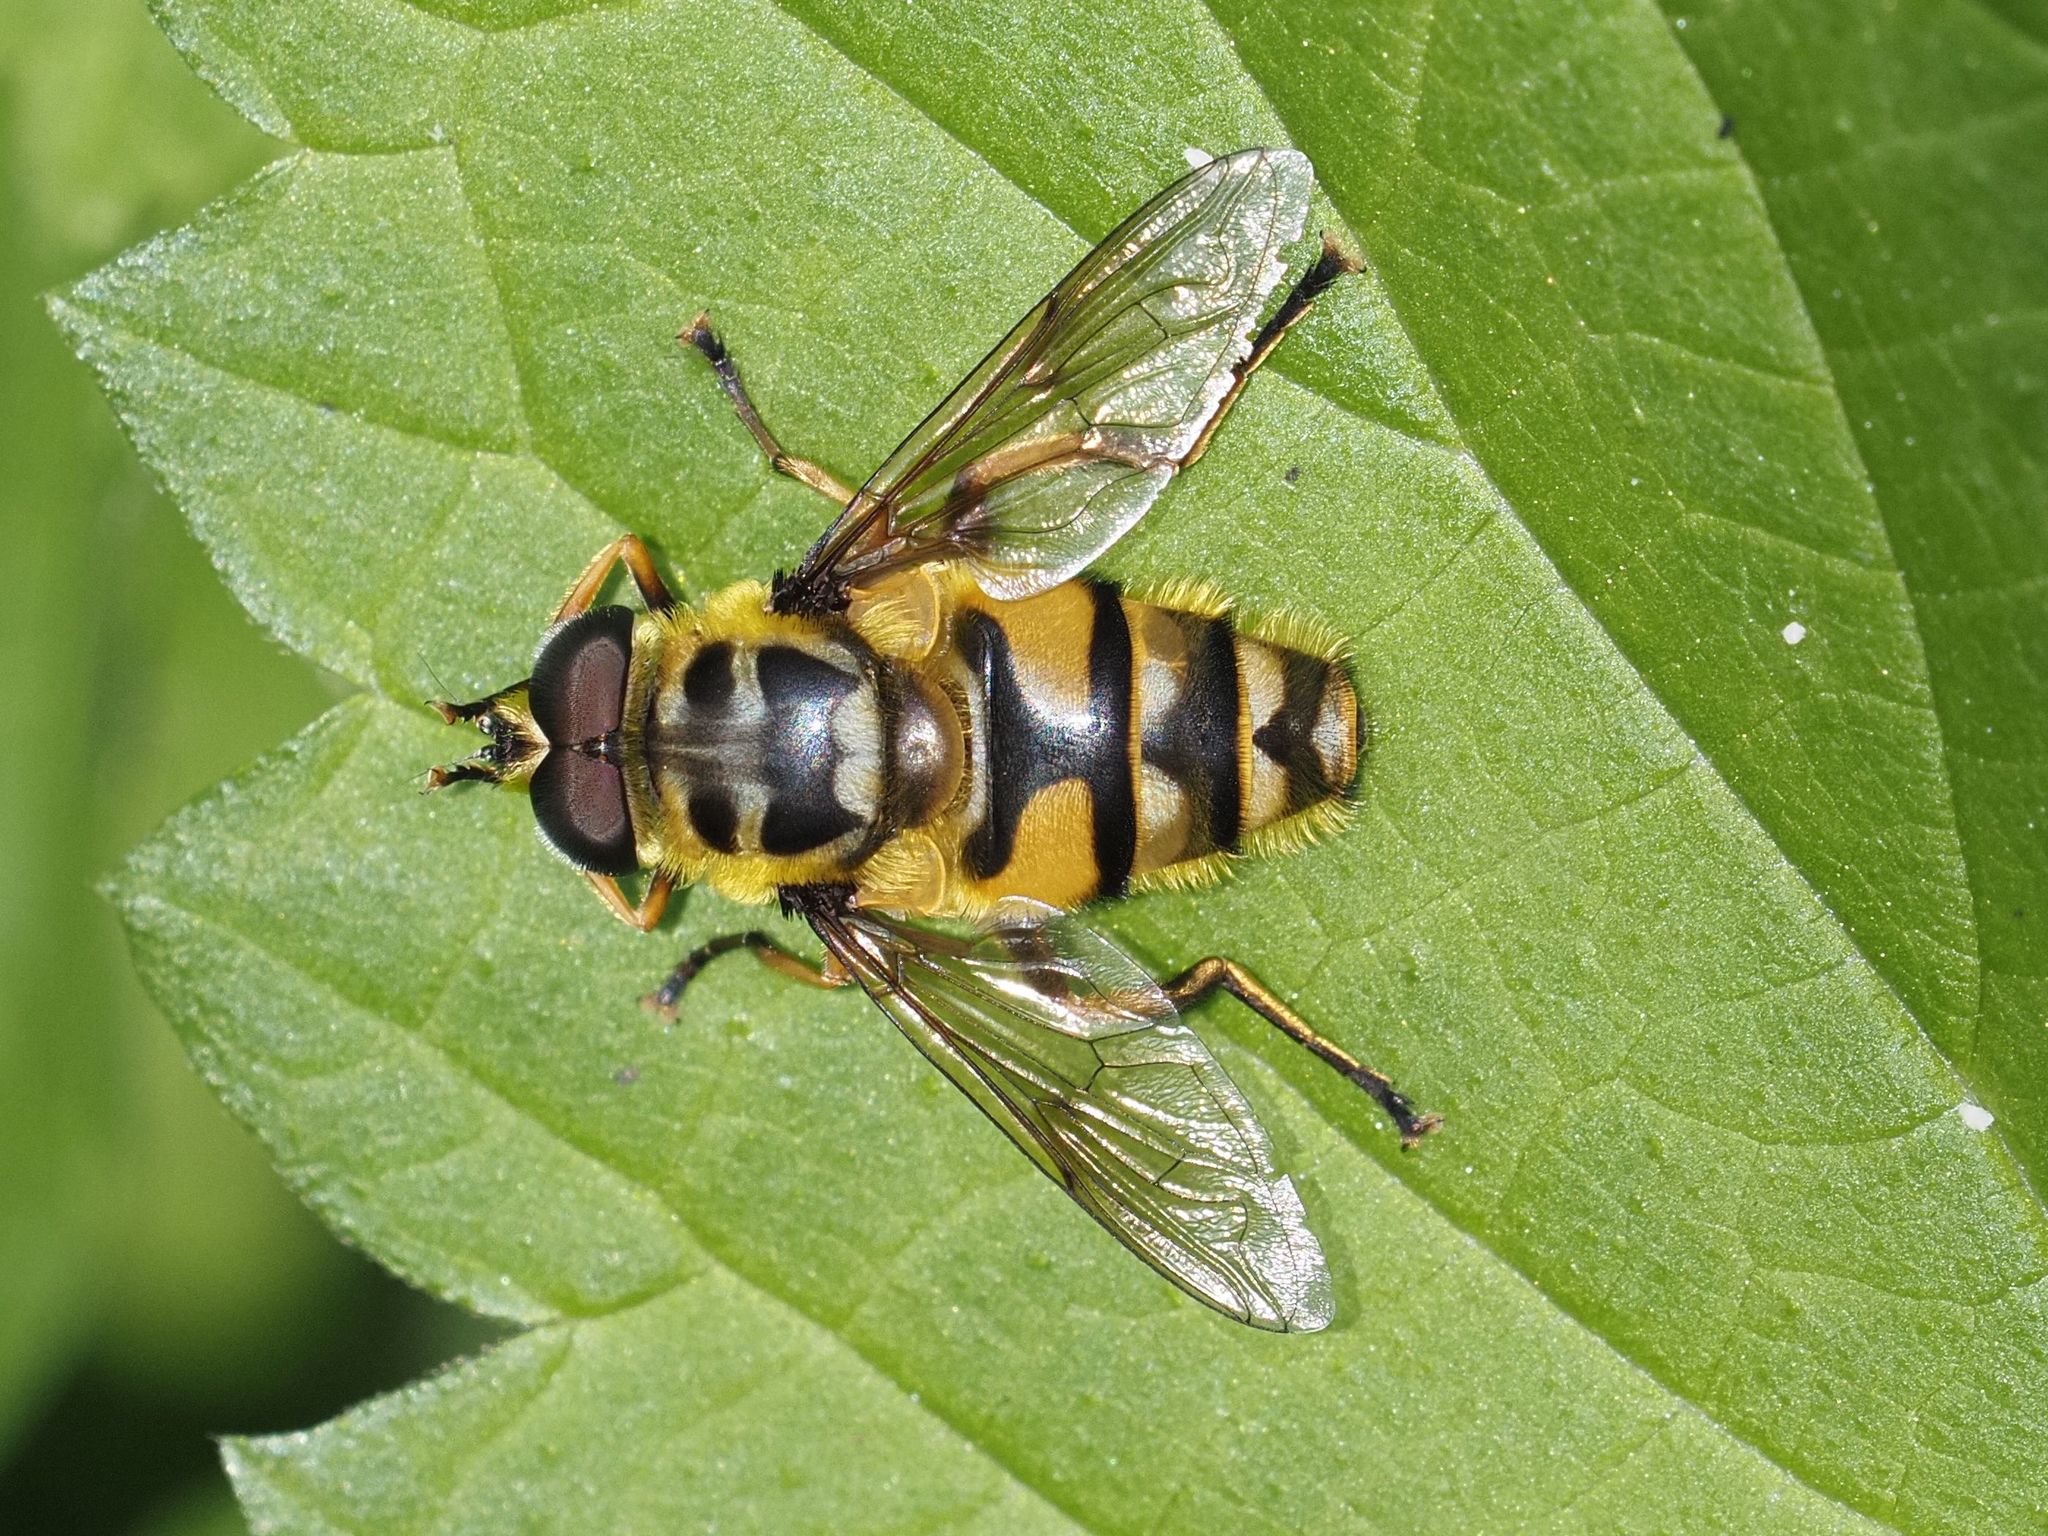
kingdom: Animalia
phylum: Arthropoda
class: Insecta
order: Diptera
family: Syrphidae
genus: Myathropa
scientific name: Myathropa florea
